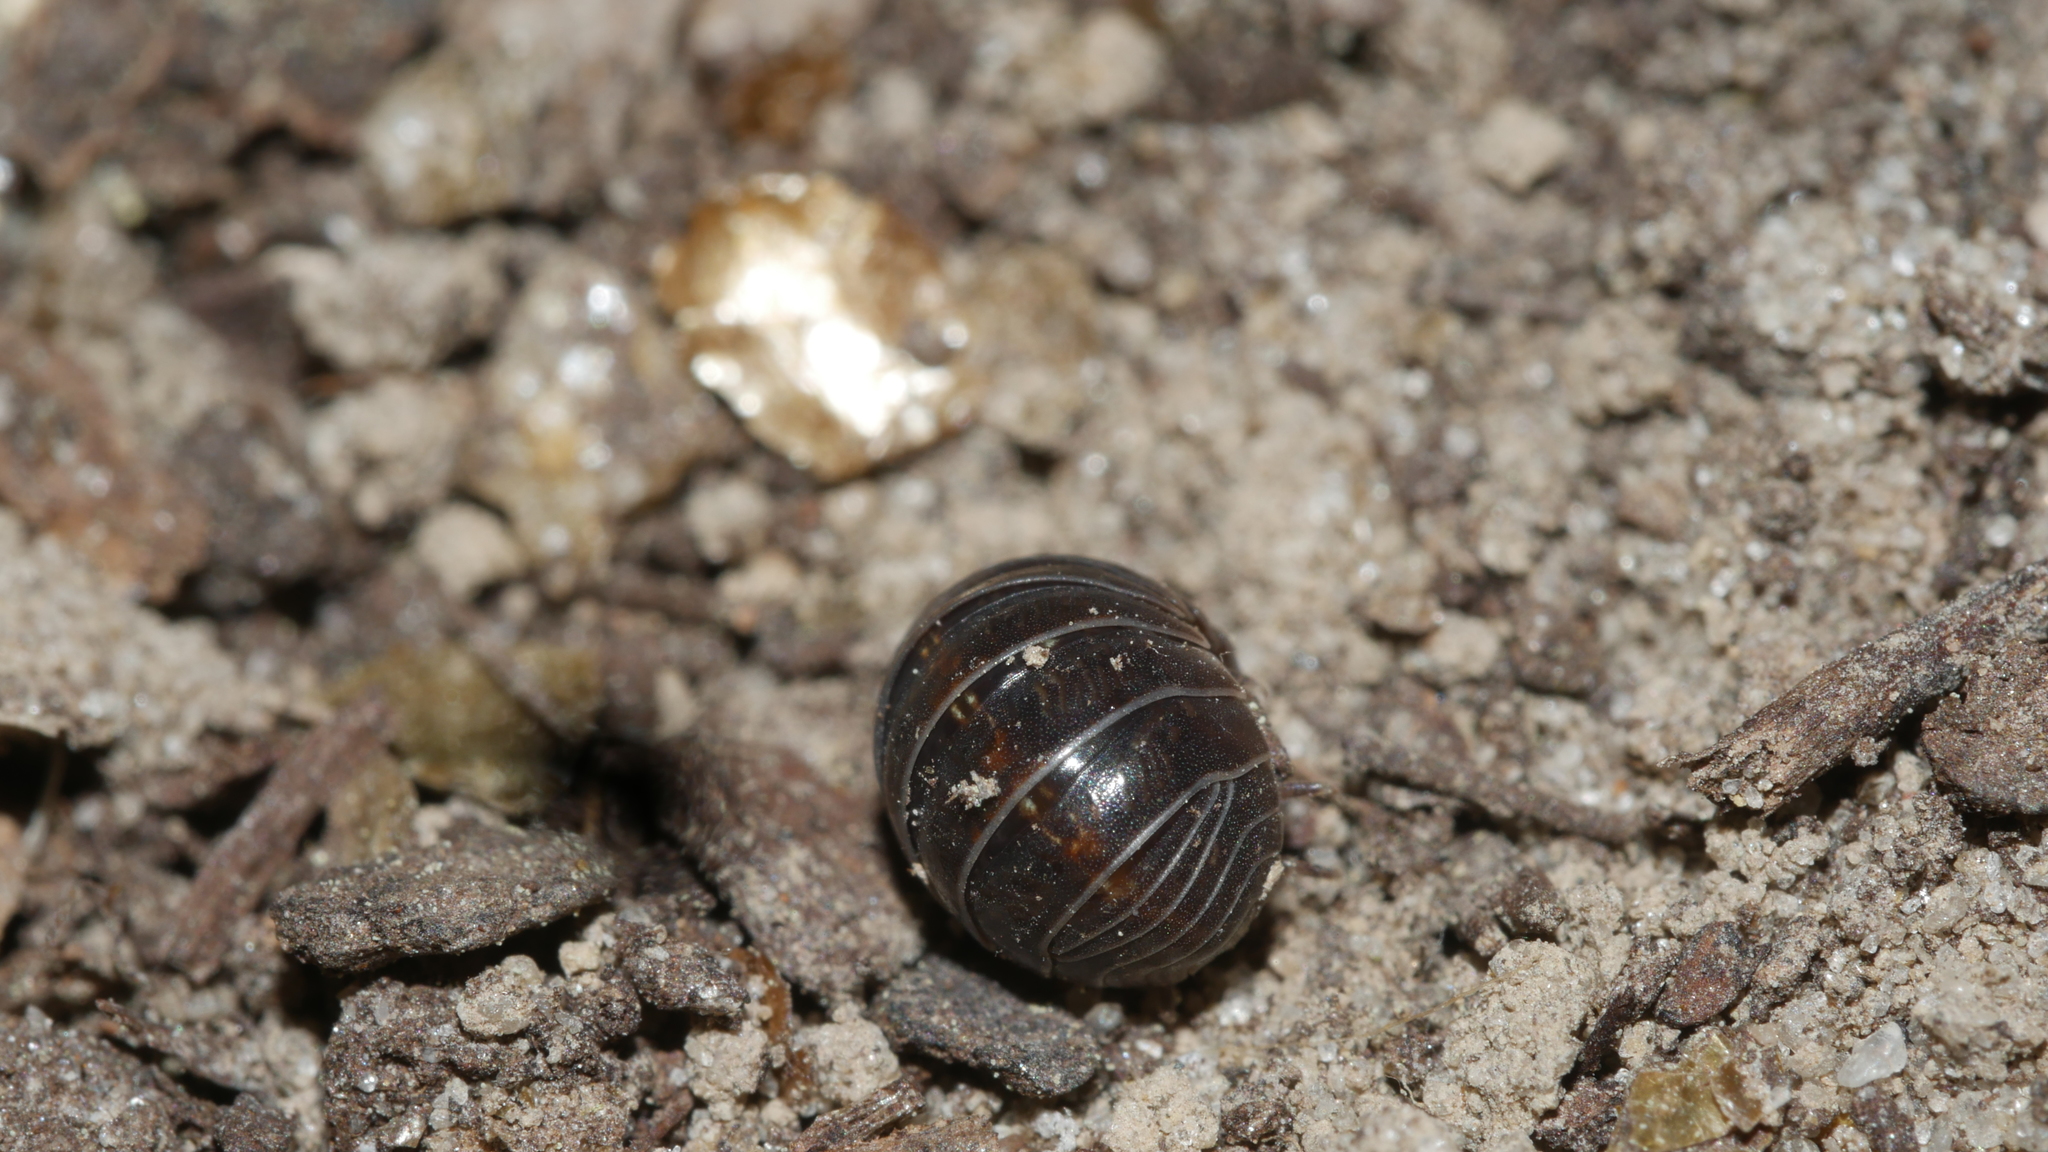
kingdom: Animalia
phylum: Arthropoda
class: Malacostraca
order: Isopoda
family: Armadillidiidae
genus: Armadillidium
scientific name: Armadillidium vulgare
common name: Common pill woodlouse
